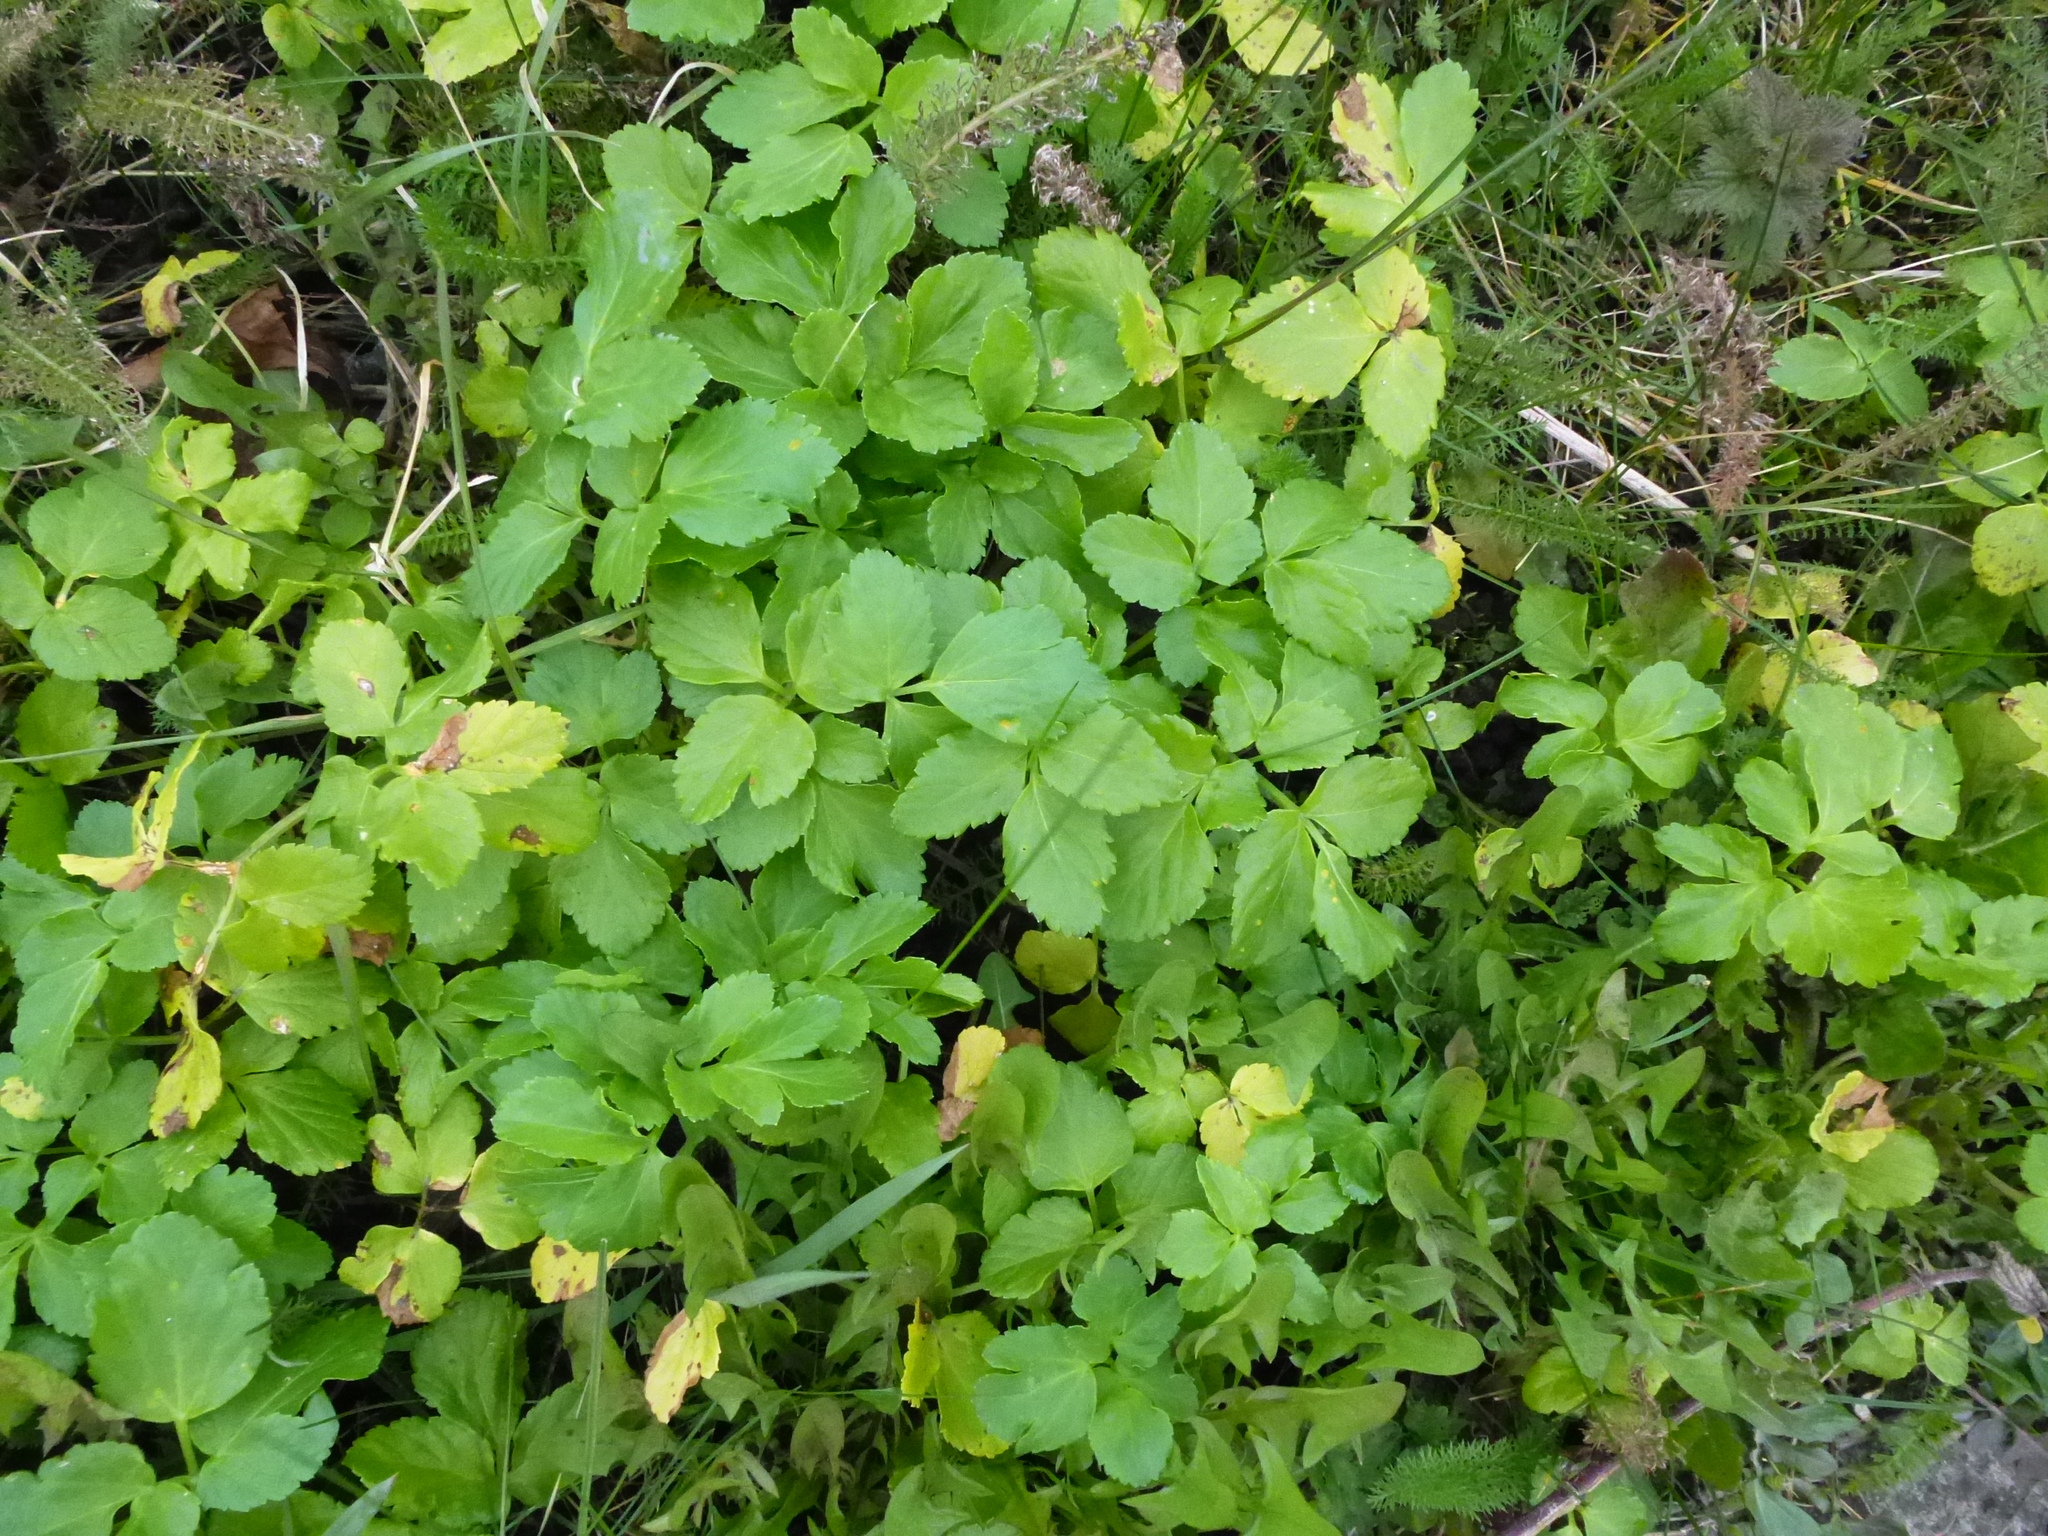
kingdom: Plantae
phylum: Tracheophyta
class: Magnoliopsida
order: Apiales
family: Apiaceae
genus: Smyrnium
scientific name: Smyrnium olusatrum
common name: Alexanders
